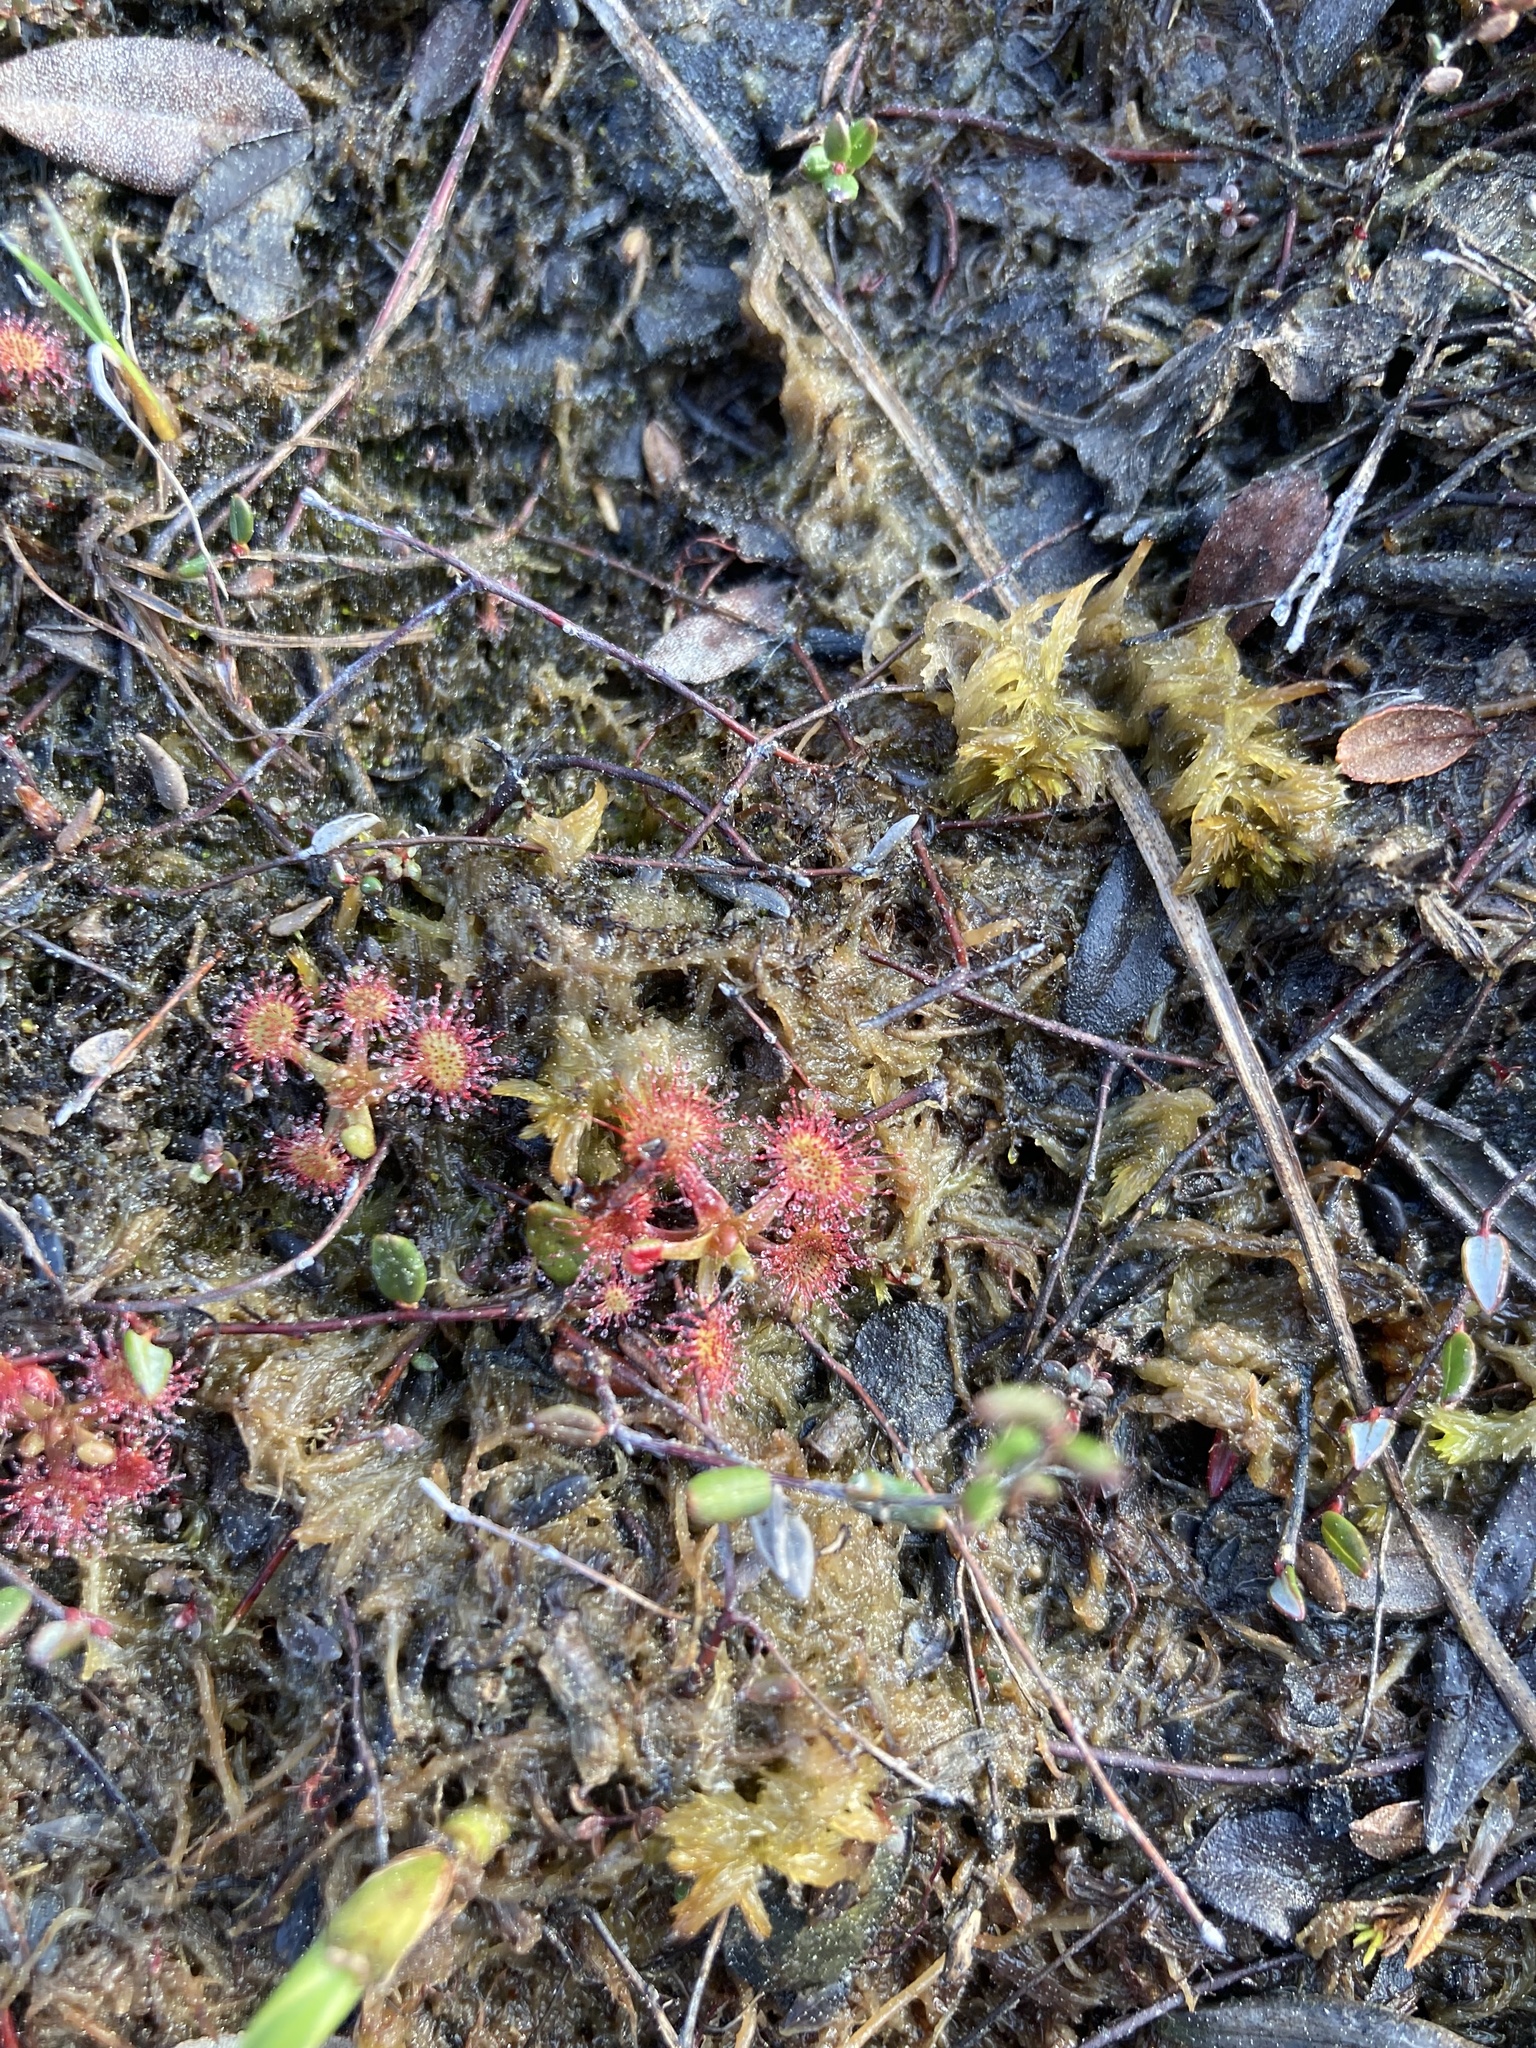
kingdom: Plantae
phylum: Tracheophyta
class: Magnoliopsida
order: Caryophyllales
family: Droseraceae
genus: Drosera
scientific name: Drosera rotundifolia
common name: Round-leaved sundew
